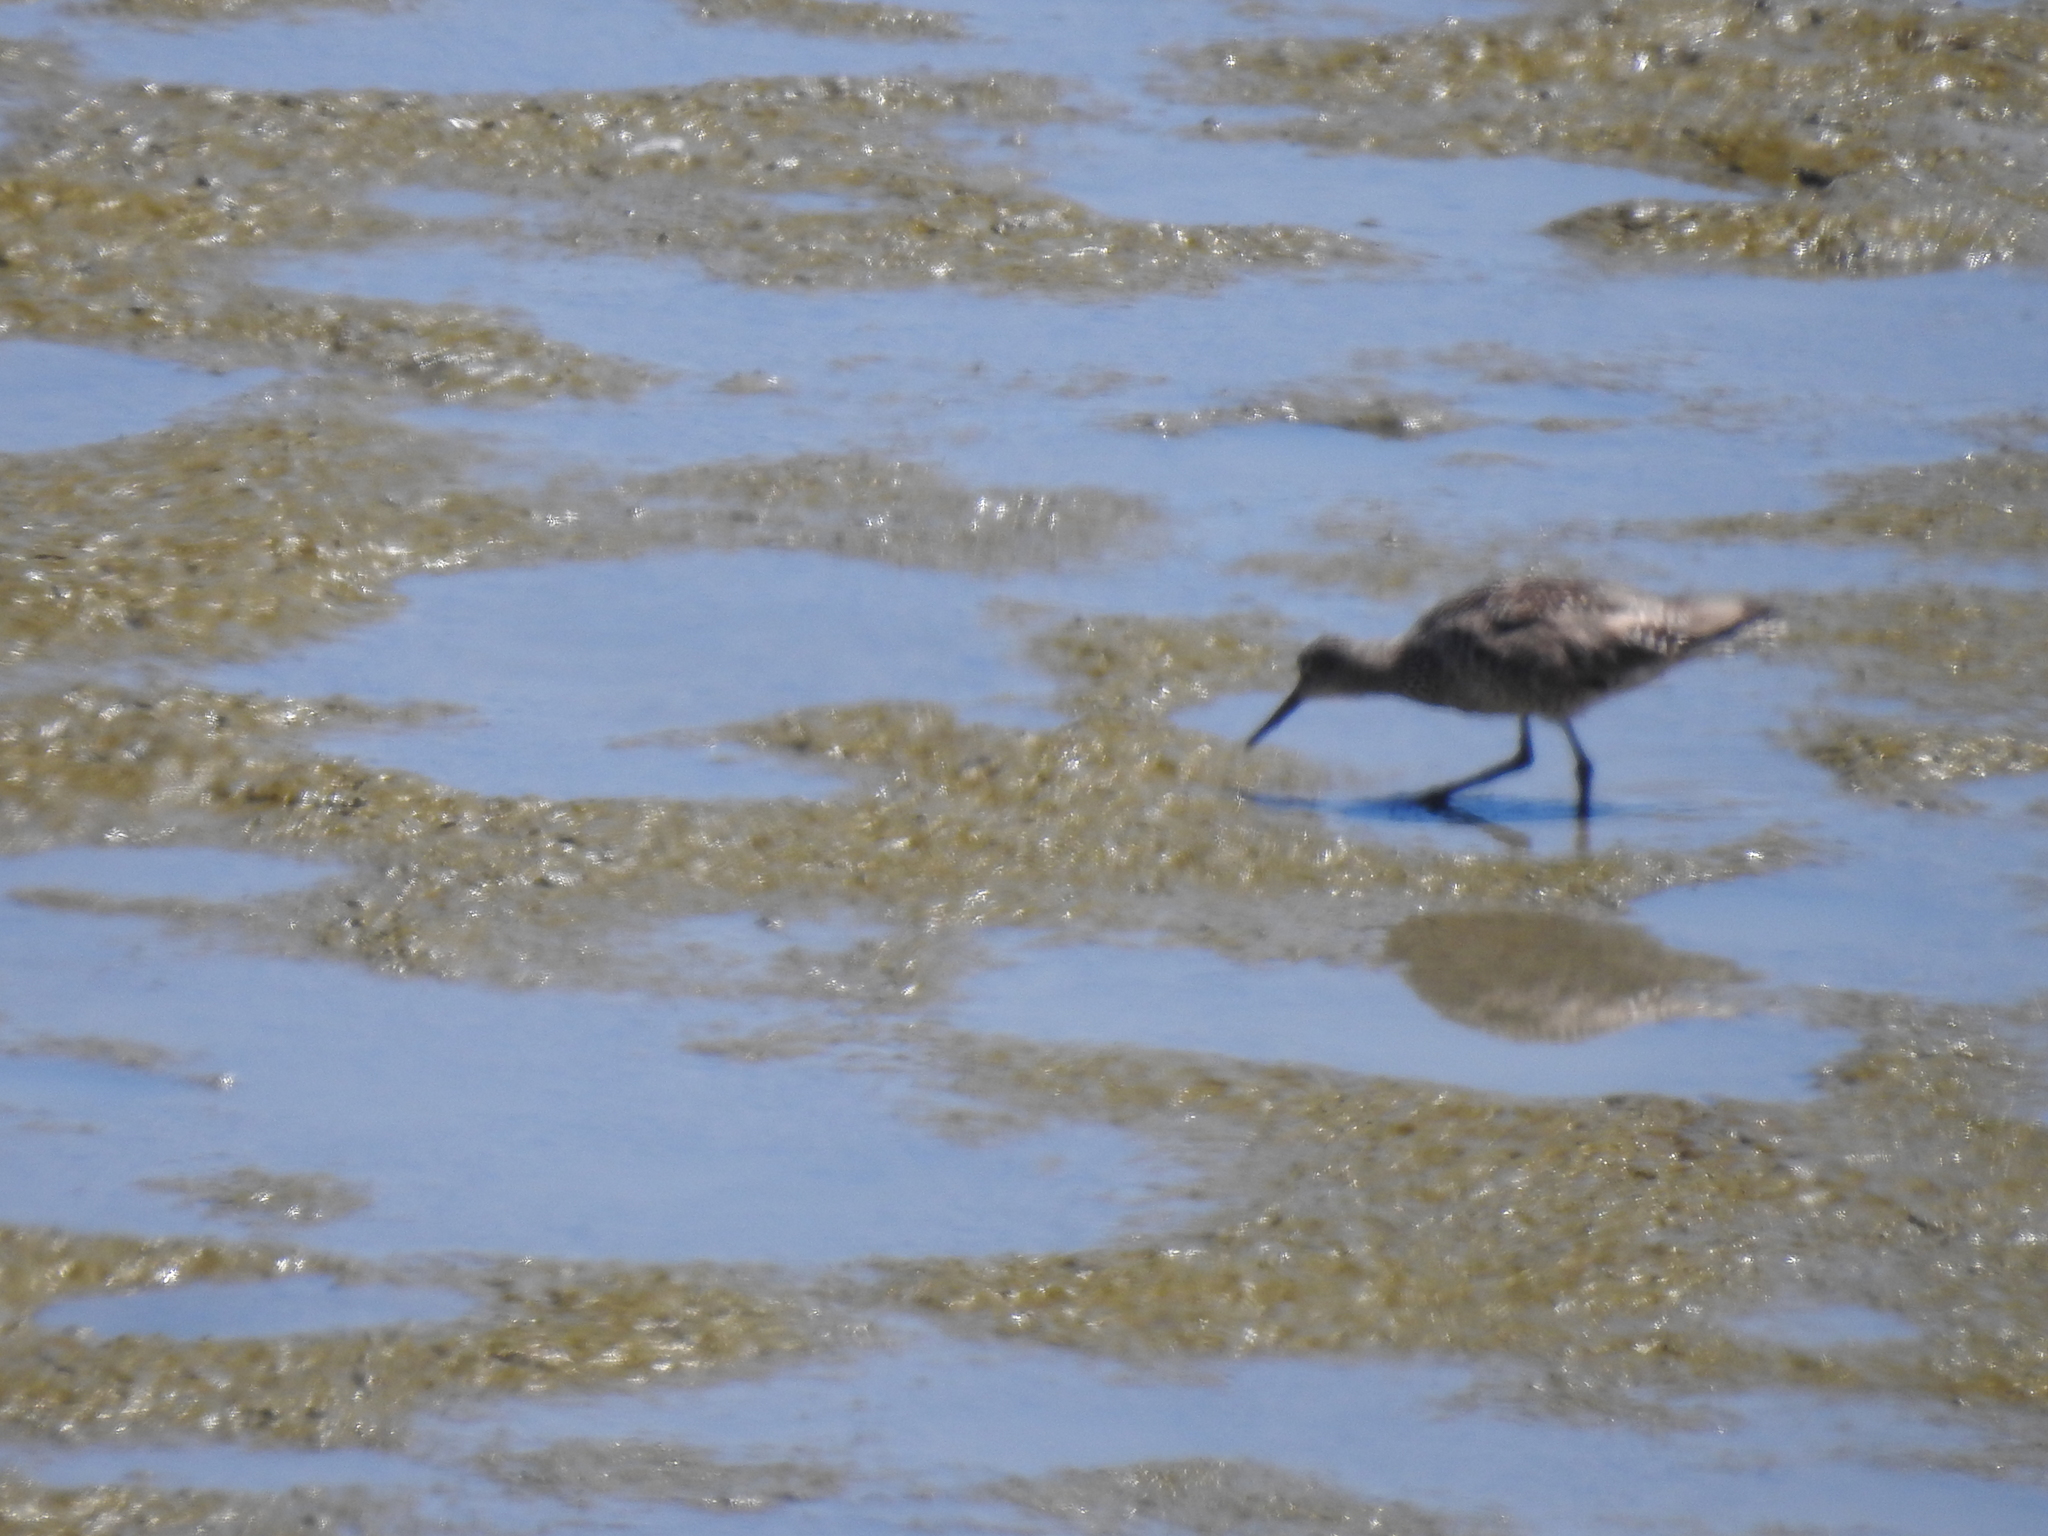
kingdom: Animalia
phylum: Chordata
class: Aves
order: Charadriiformes
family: Scolopacidae
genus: Tringa
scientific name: Tringa semipalmata
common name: Willet
